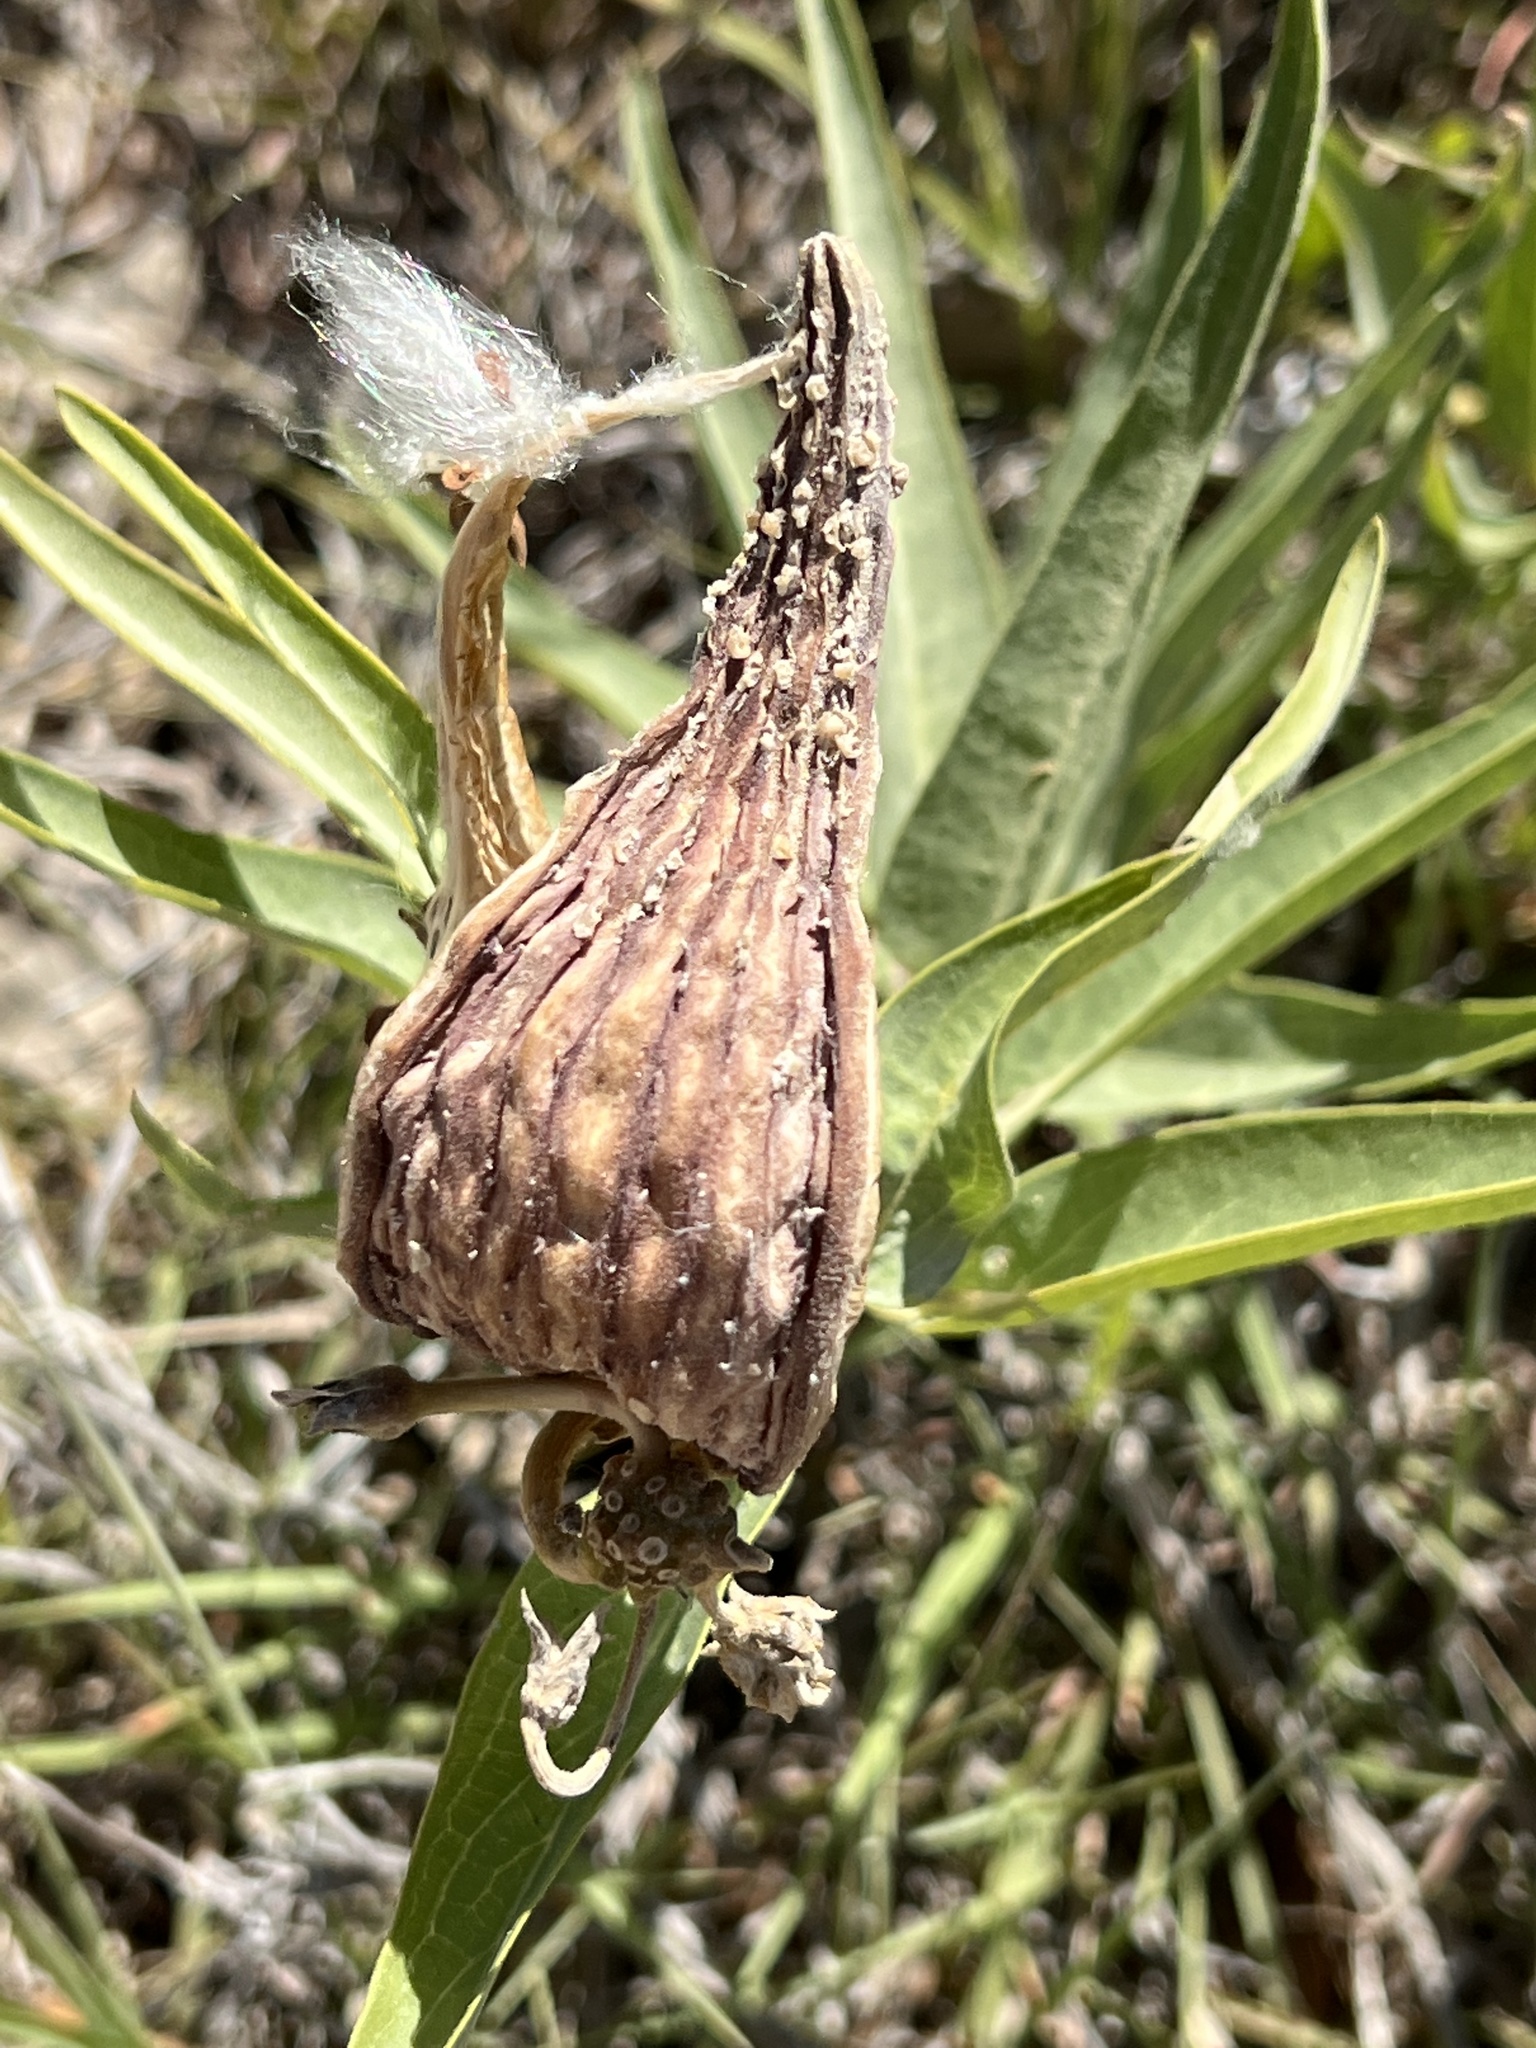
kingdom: Plantae
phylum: Tracheophyta
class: Magnoliopsida
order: Gentianales
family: Apocynaceae
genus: Asclepias
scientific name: Asclepias asperula
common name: Antelope horns
